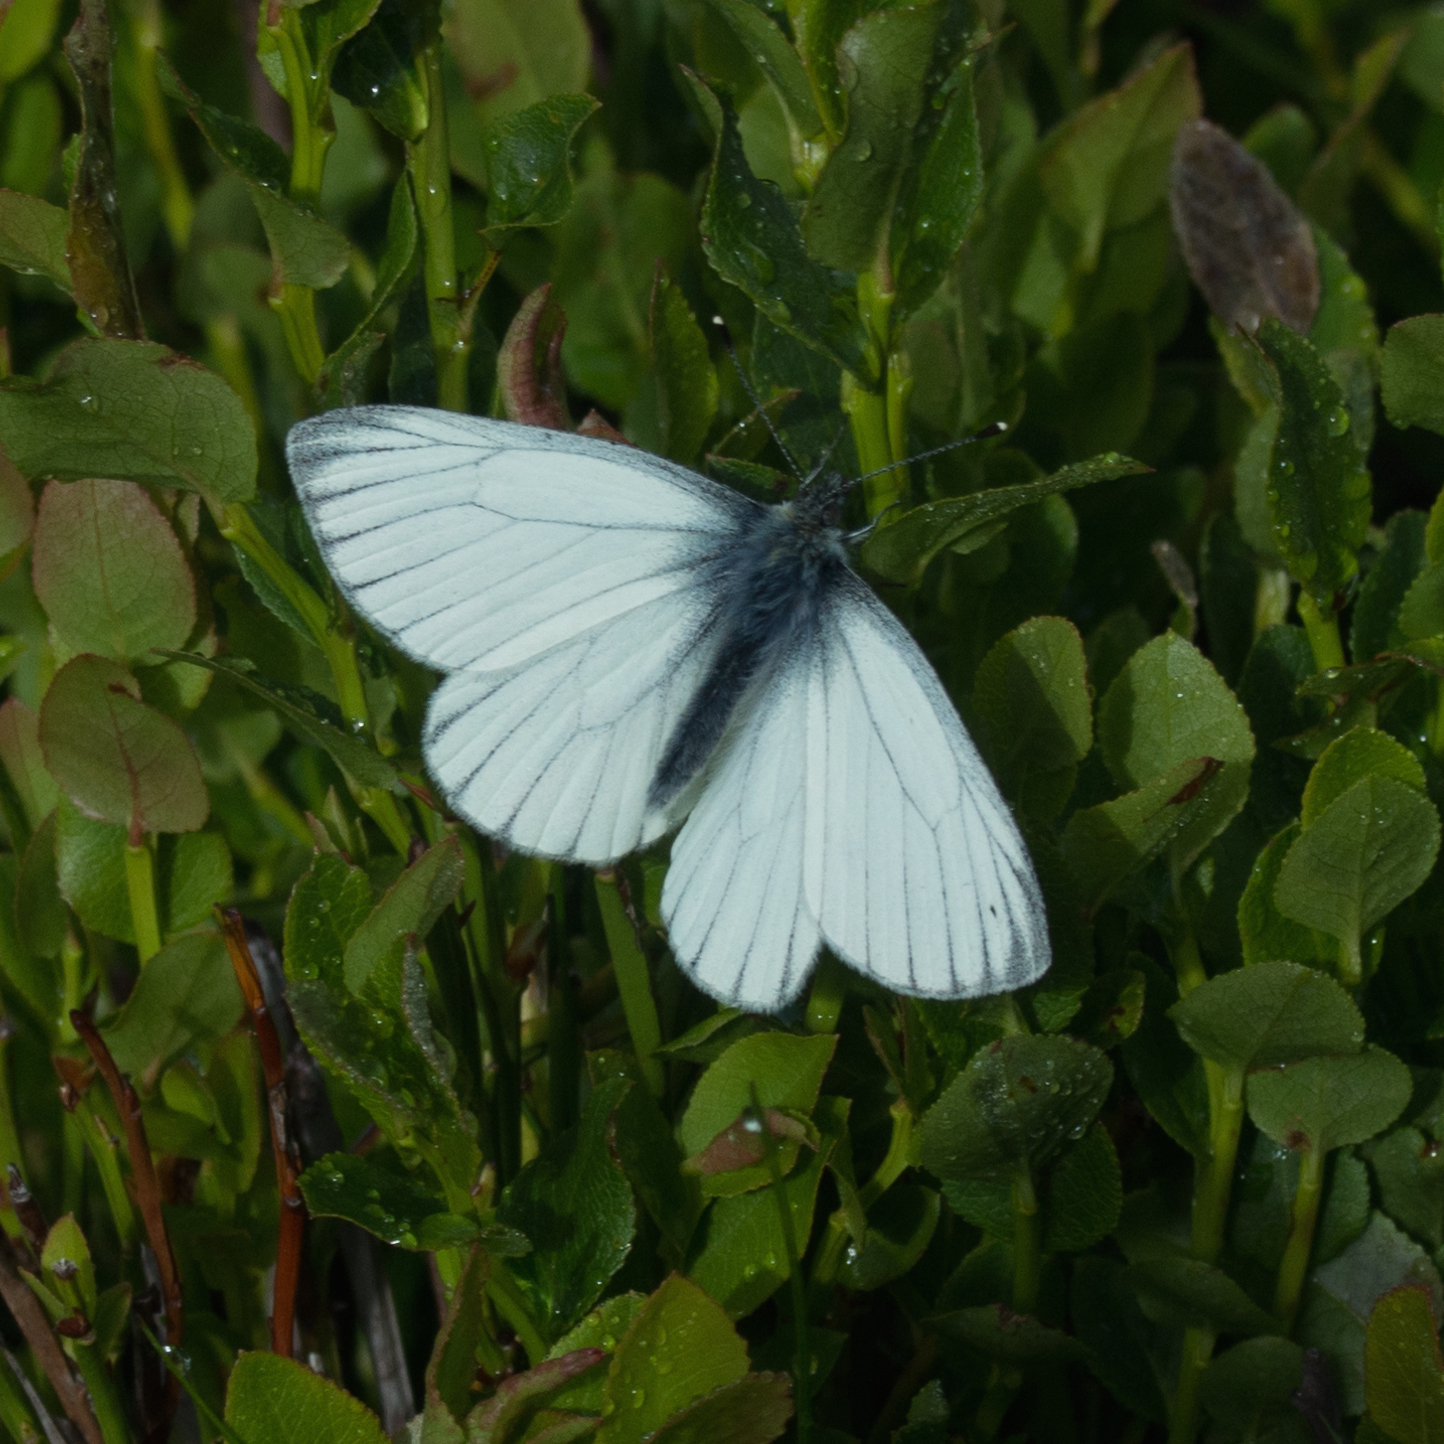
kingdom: Animalia
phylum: Arthropoda
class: Insecta
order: Lepidoptera
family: Pieridae
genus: Pieris
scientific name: Pieris napi
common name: Green-veined white
